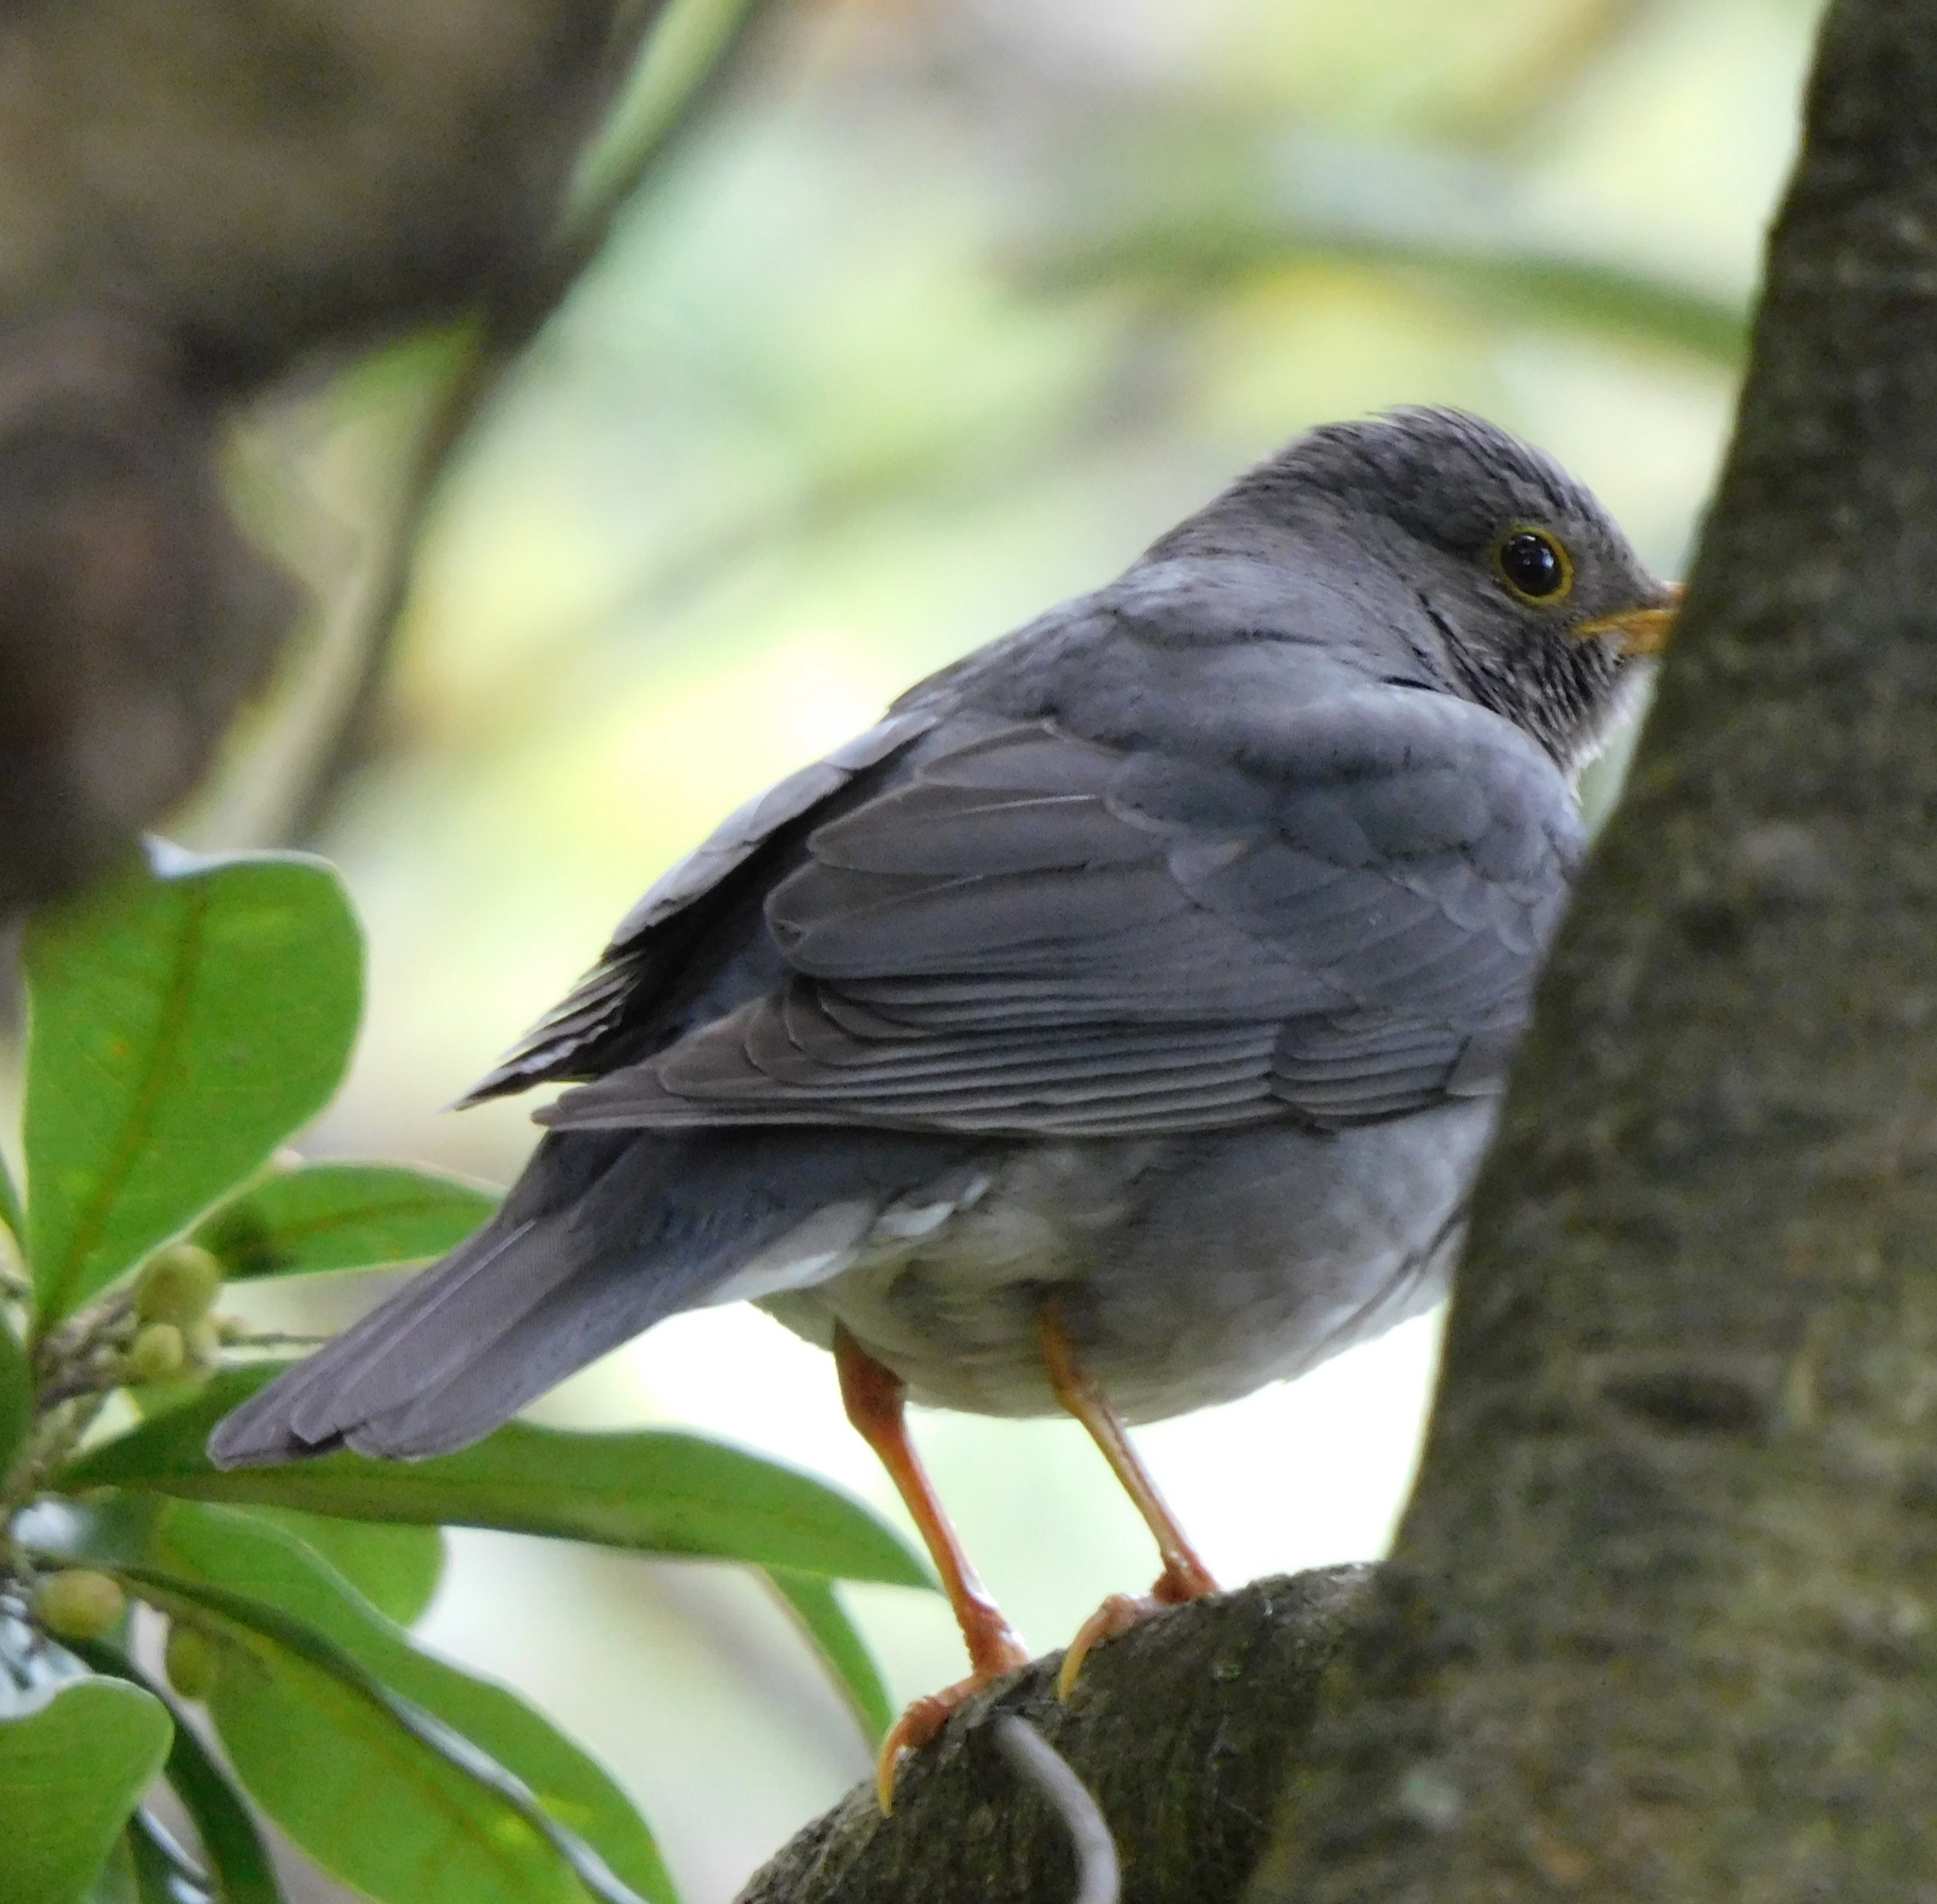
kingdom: Animalia
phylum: Chordata
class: Aves
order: Passeriformes
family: Turdidae
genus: Turdus
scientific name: Turdus unicolor
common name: Tickell's thrush
